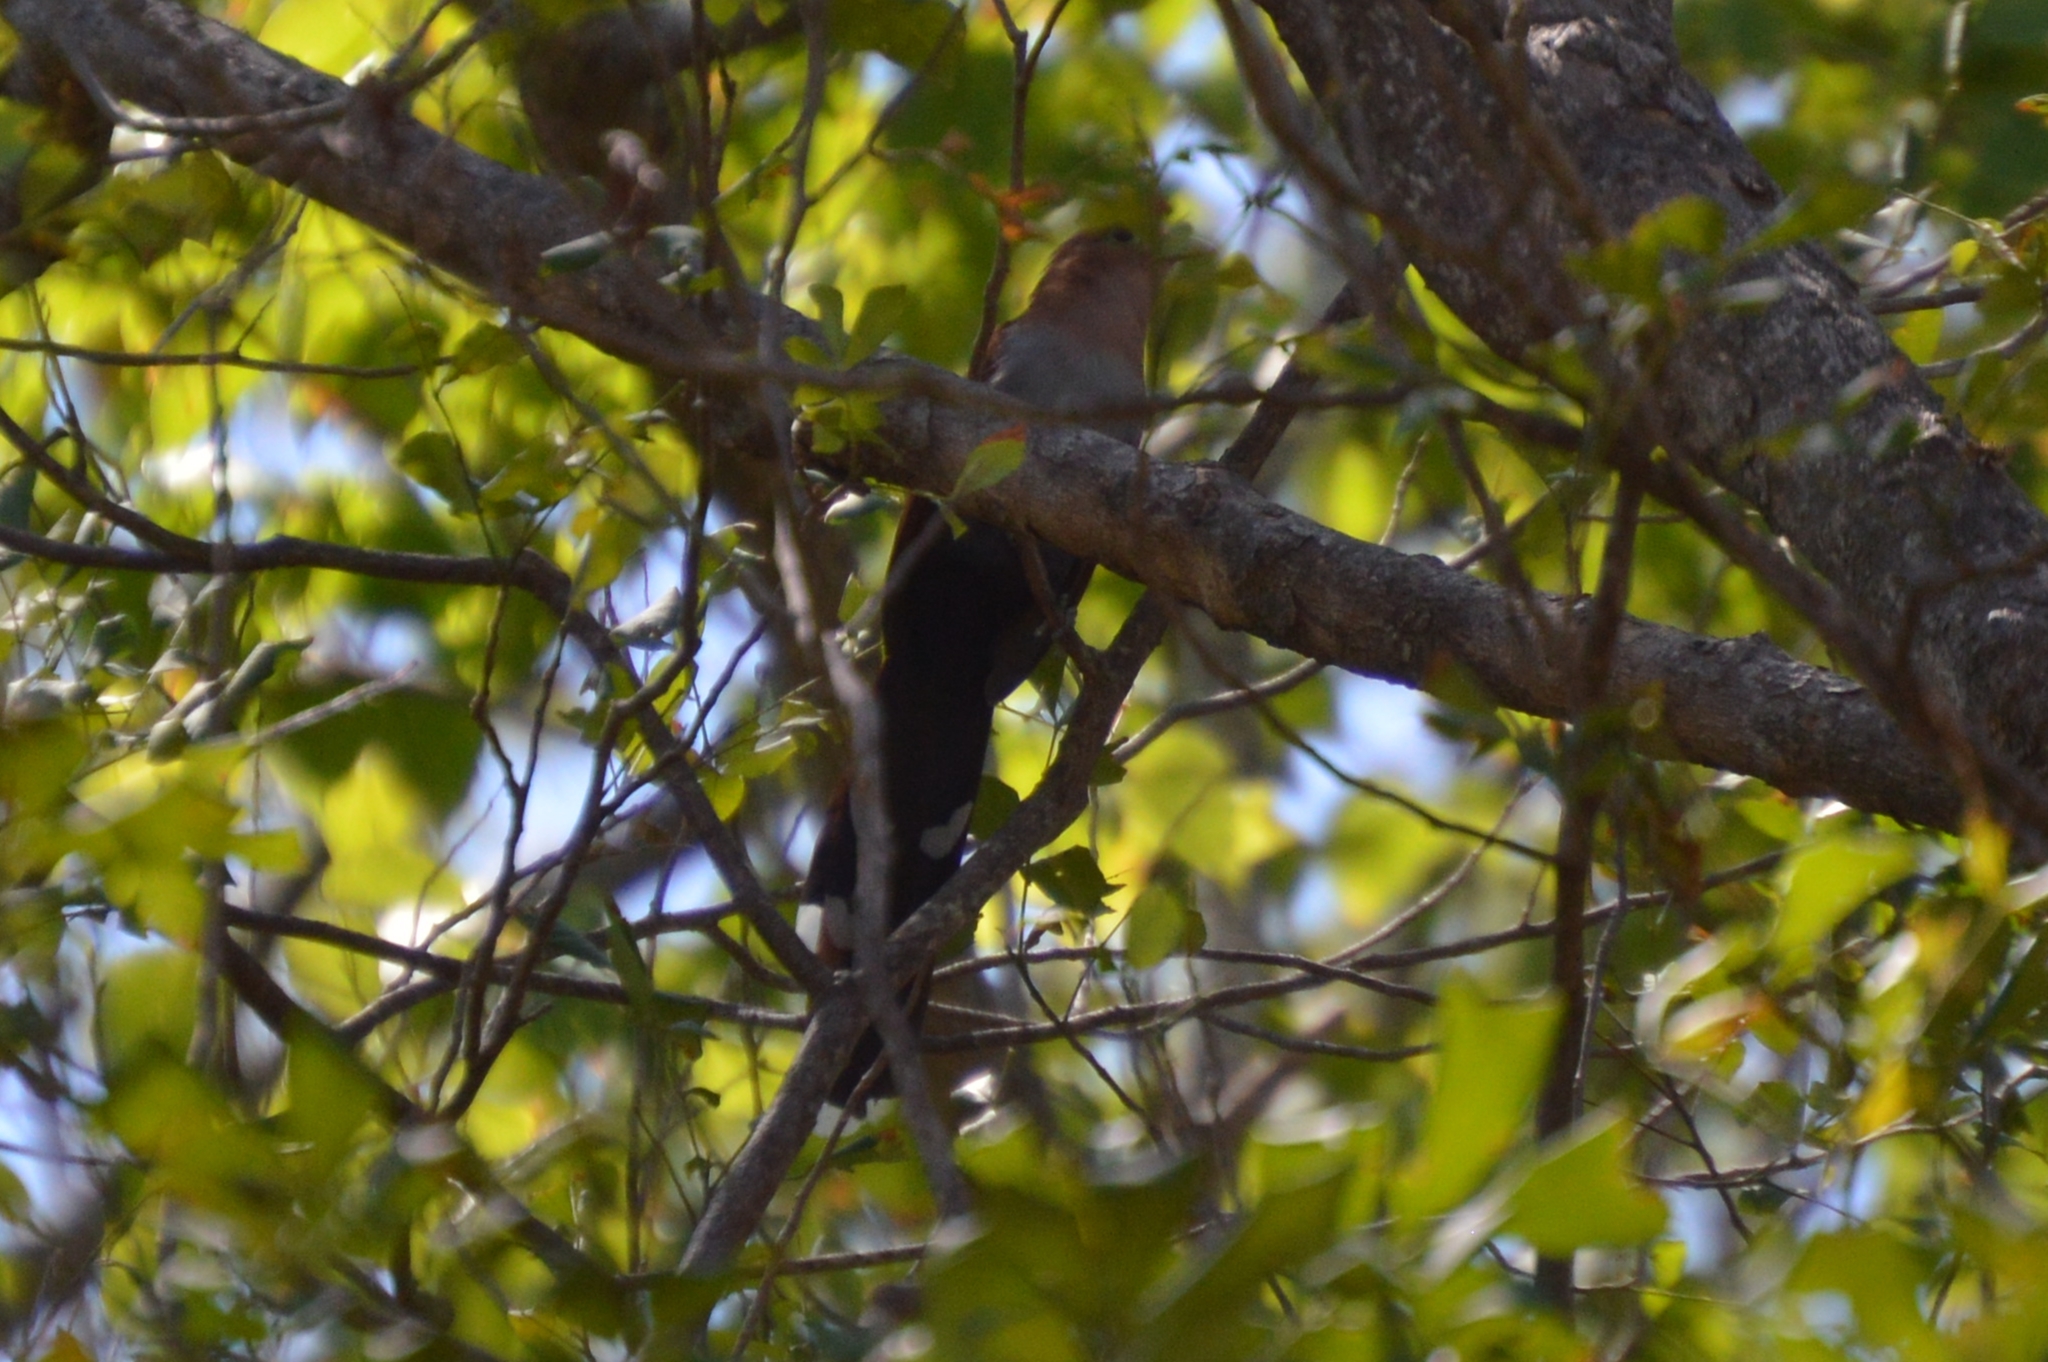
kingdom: Animalia
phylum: Chordata
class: Aves
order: Cuculiformes
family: Cuculidae
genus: Piaya
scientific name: Piaya cayana
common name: Squirrel cuckoo
